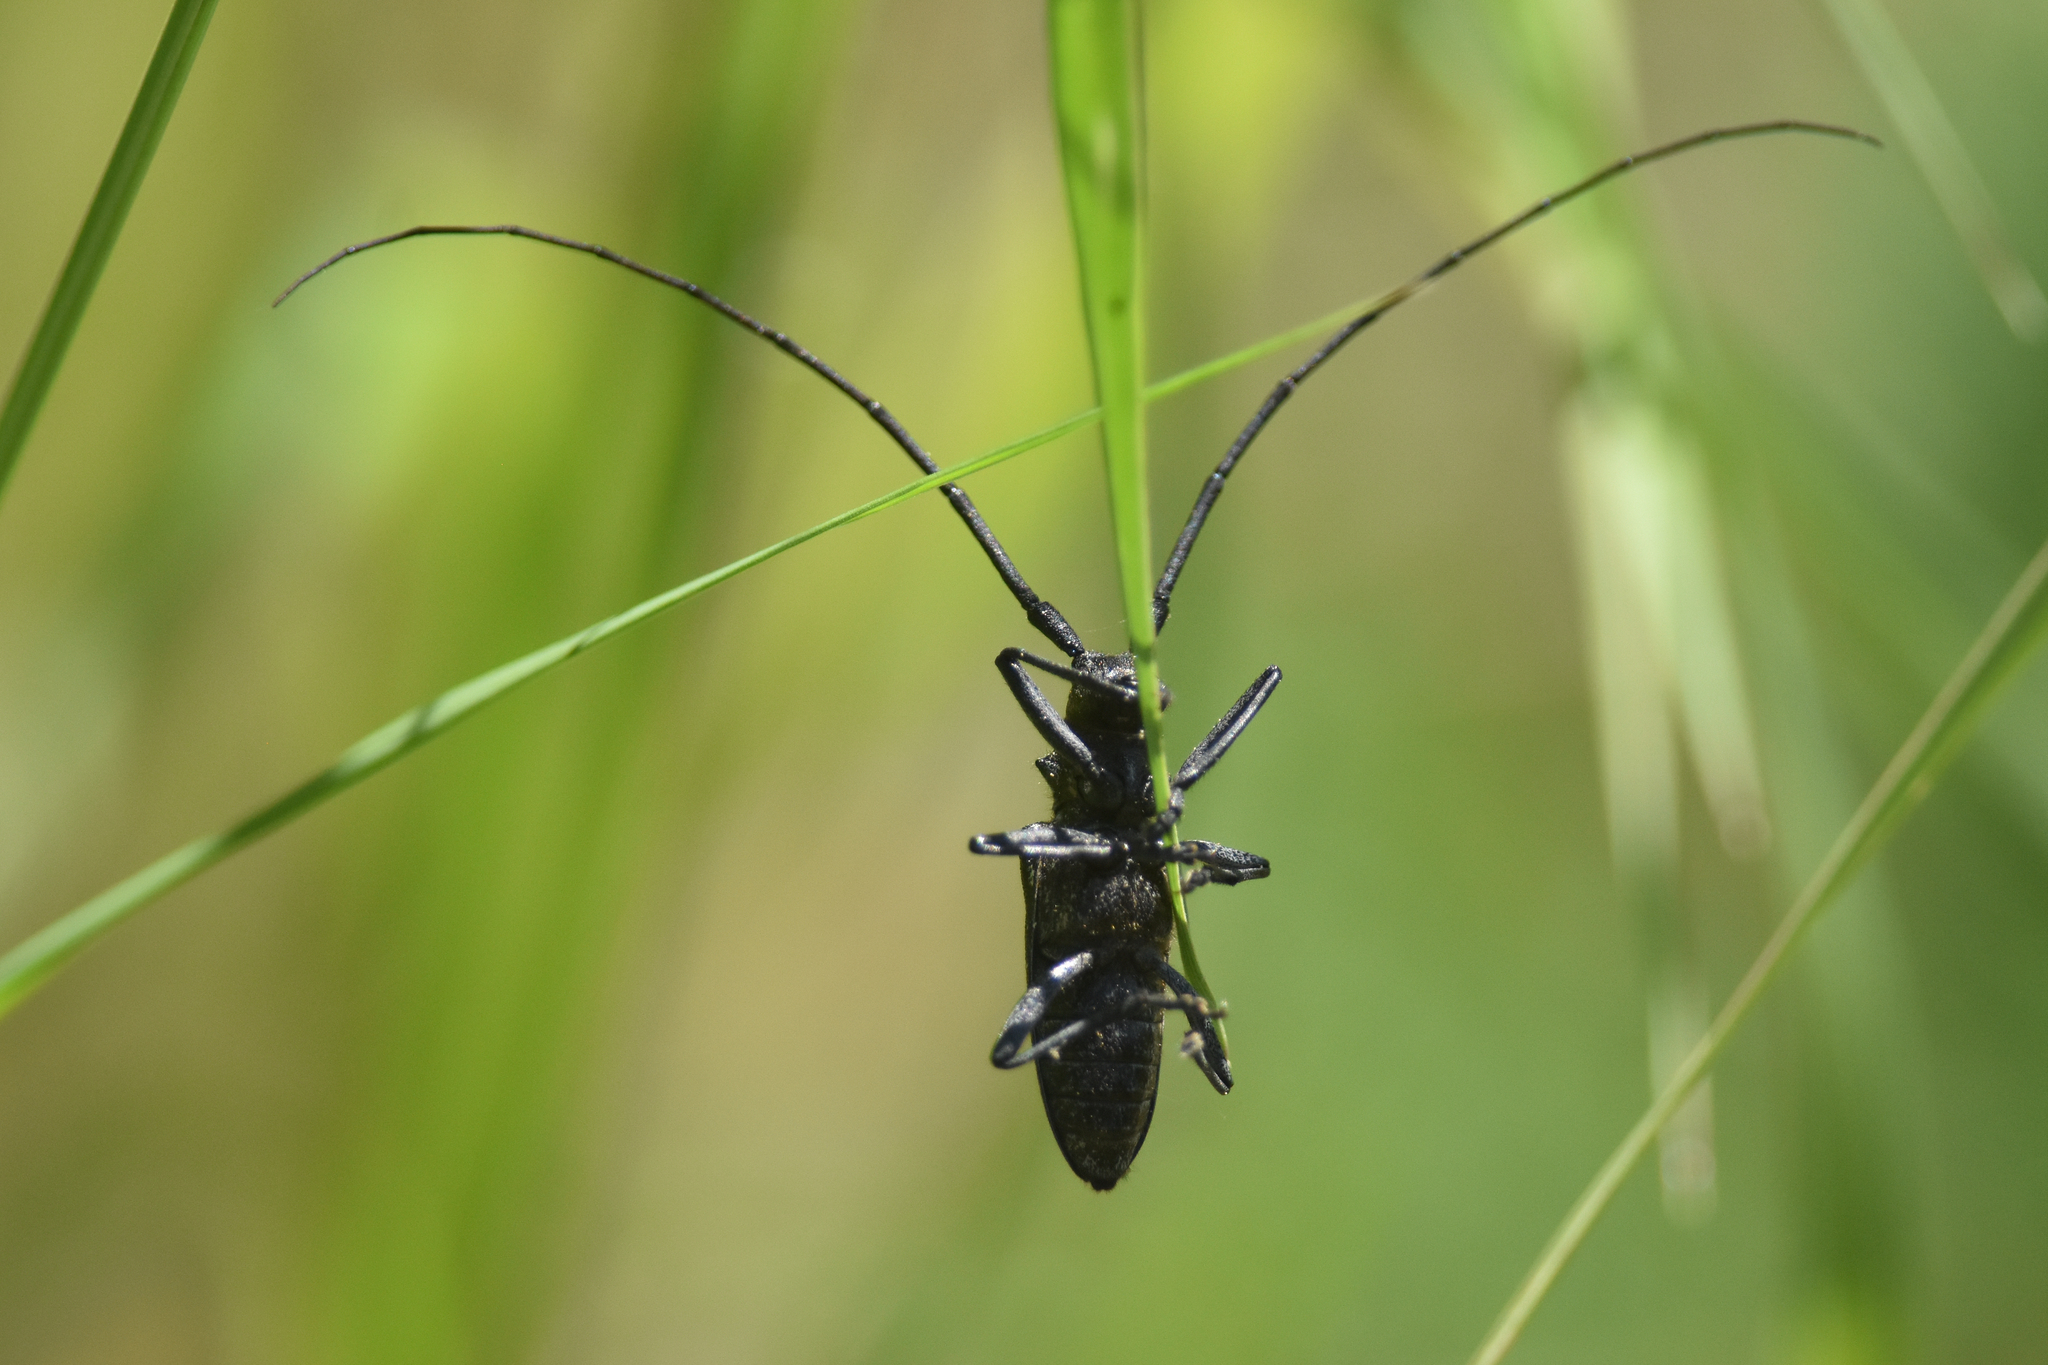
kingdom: Animalia
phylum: Arthropoda
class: Insecta
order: Coleoptera
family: Cerambycidae
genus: Monochamus
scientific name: Monochamus scutellatus
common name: White-spotted sawyer beetle
